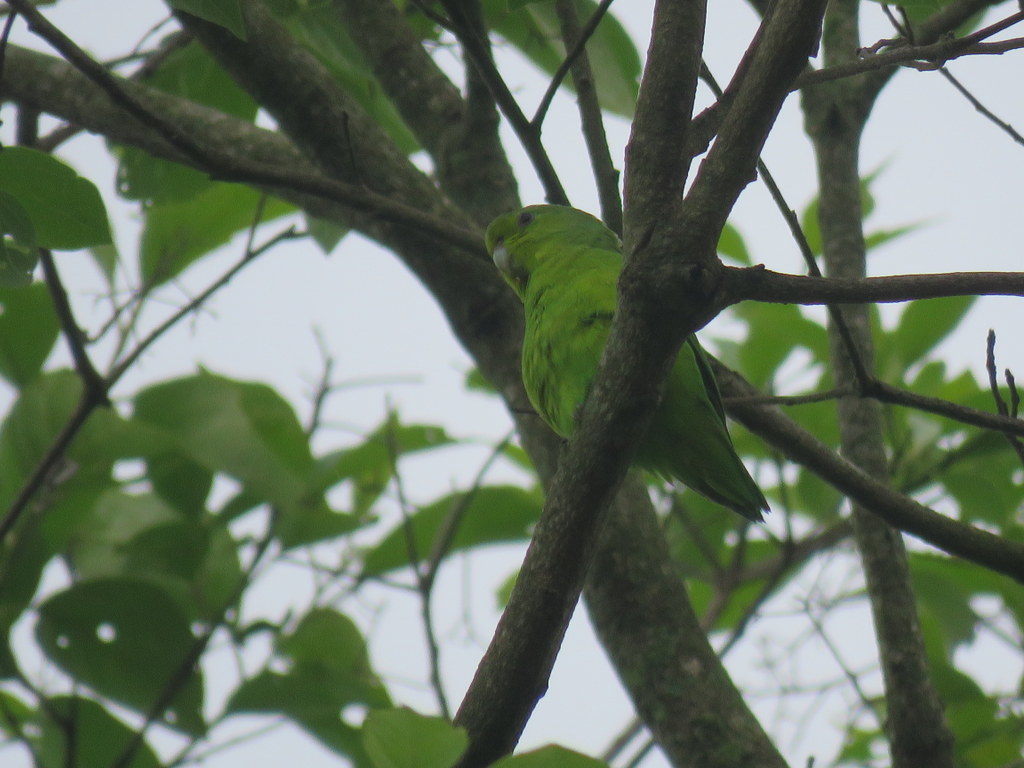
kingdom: Animalia
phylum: Chordata
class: Aves
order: Psittaciformes
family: Psittacidae
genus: Forpus
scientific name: Forpus xanthopterygius
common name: Blue-winged parrotlet
